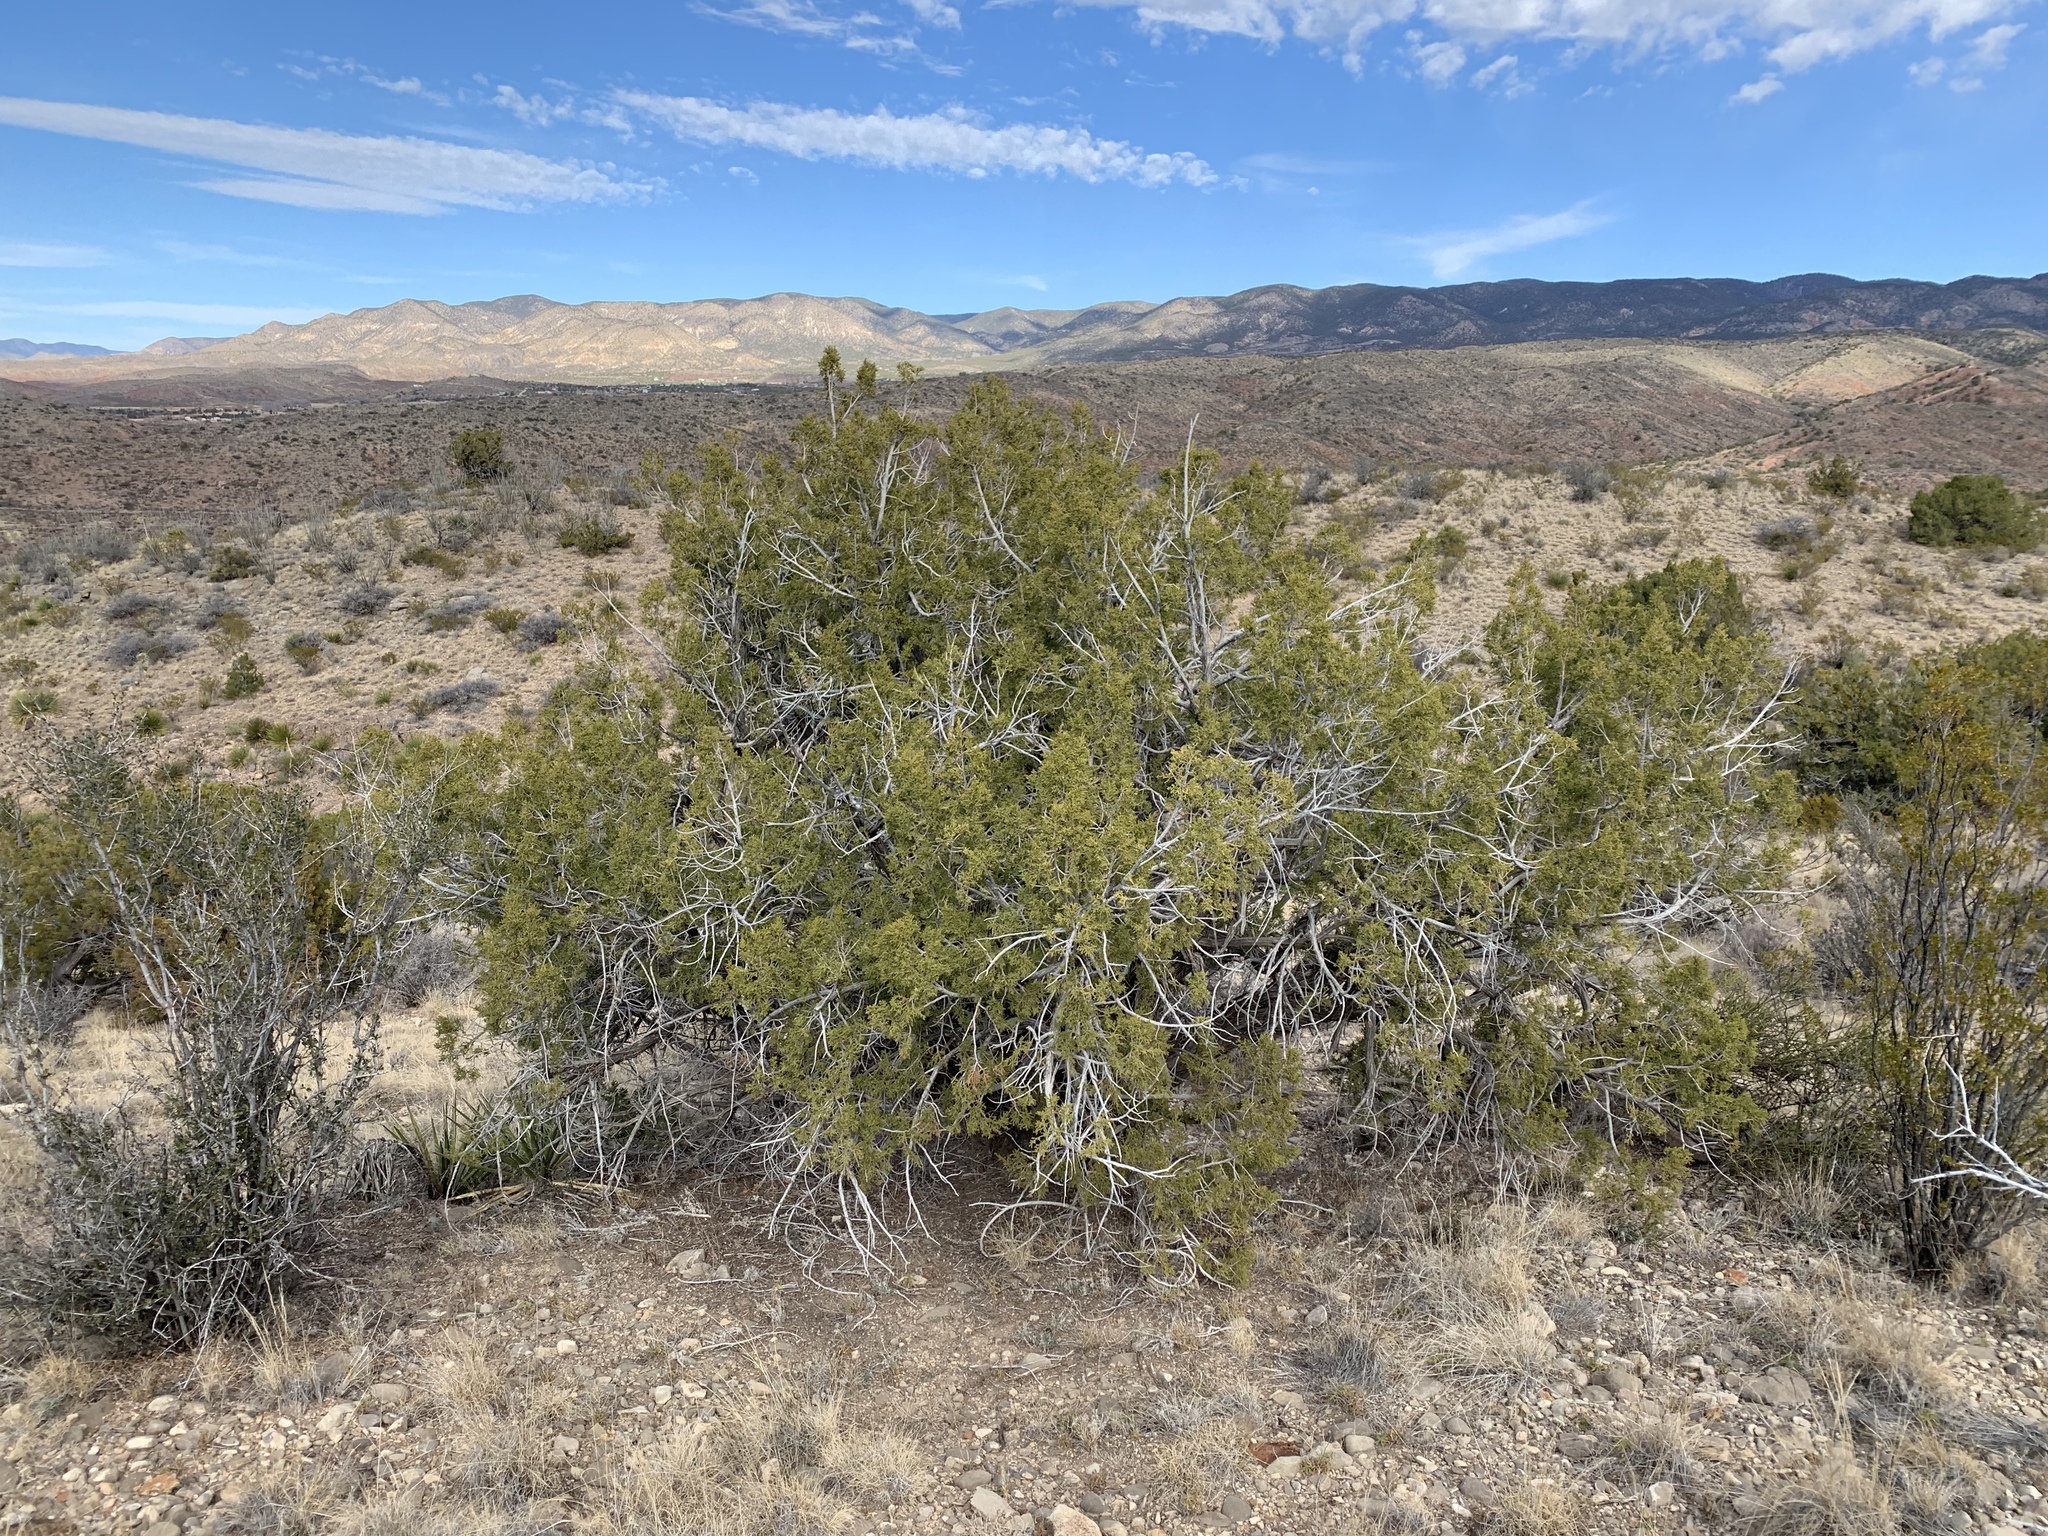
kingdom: Plantae
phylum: Tracheophyta
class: Pinopsida
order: Pinales
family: Cupressaceae
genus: Juniperus
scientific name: Juniperus monosperma
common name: One-seed juniper
